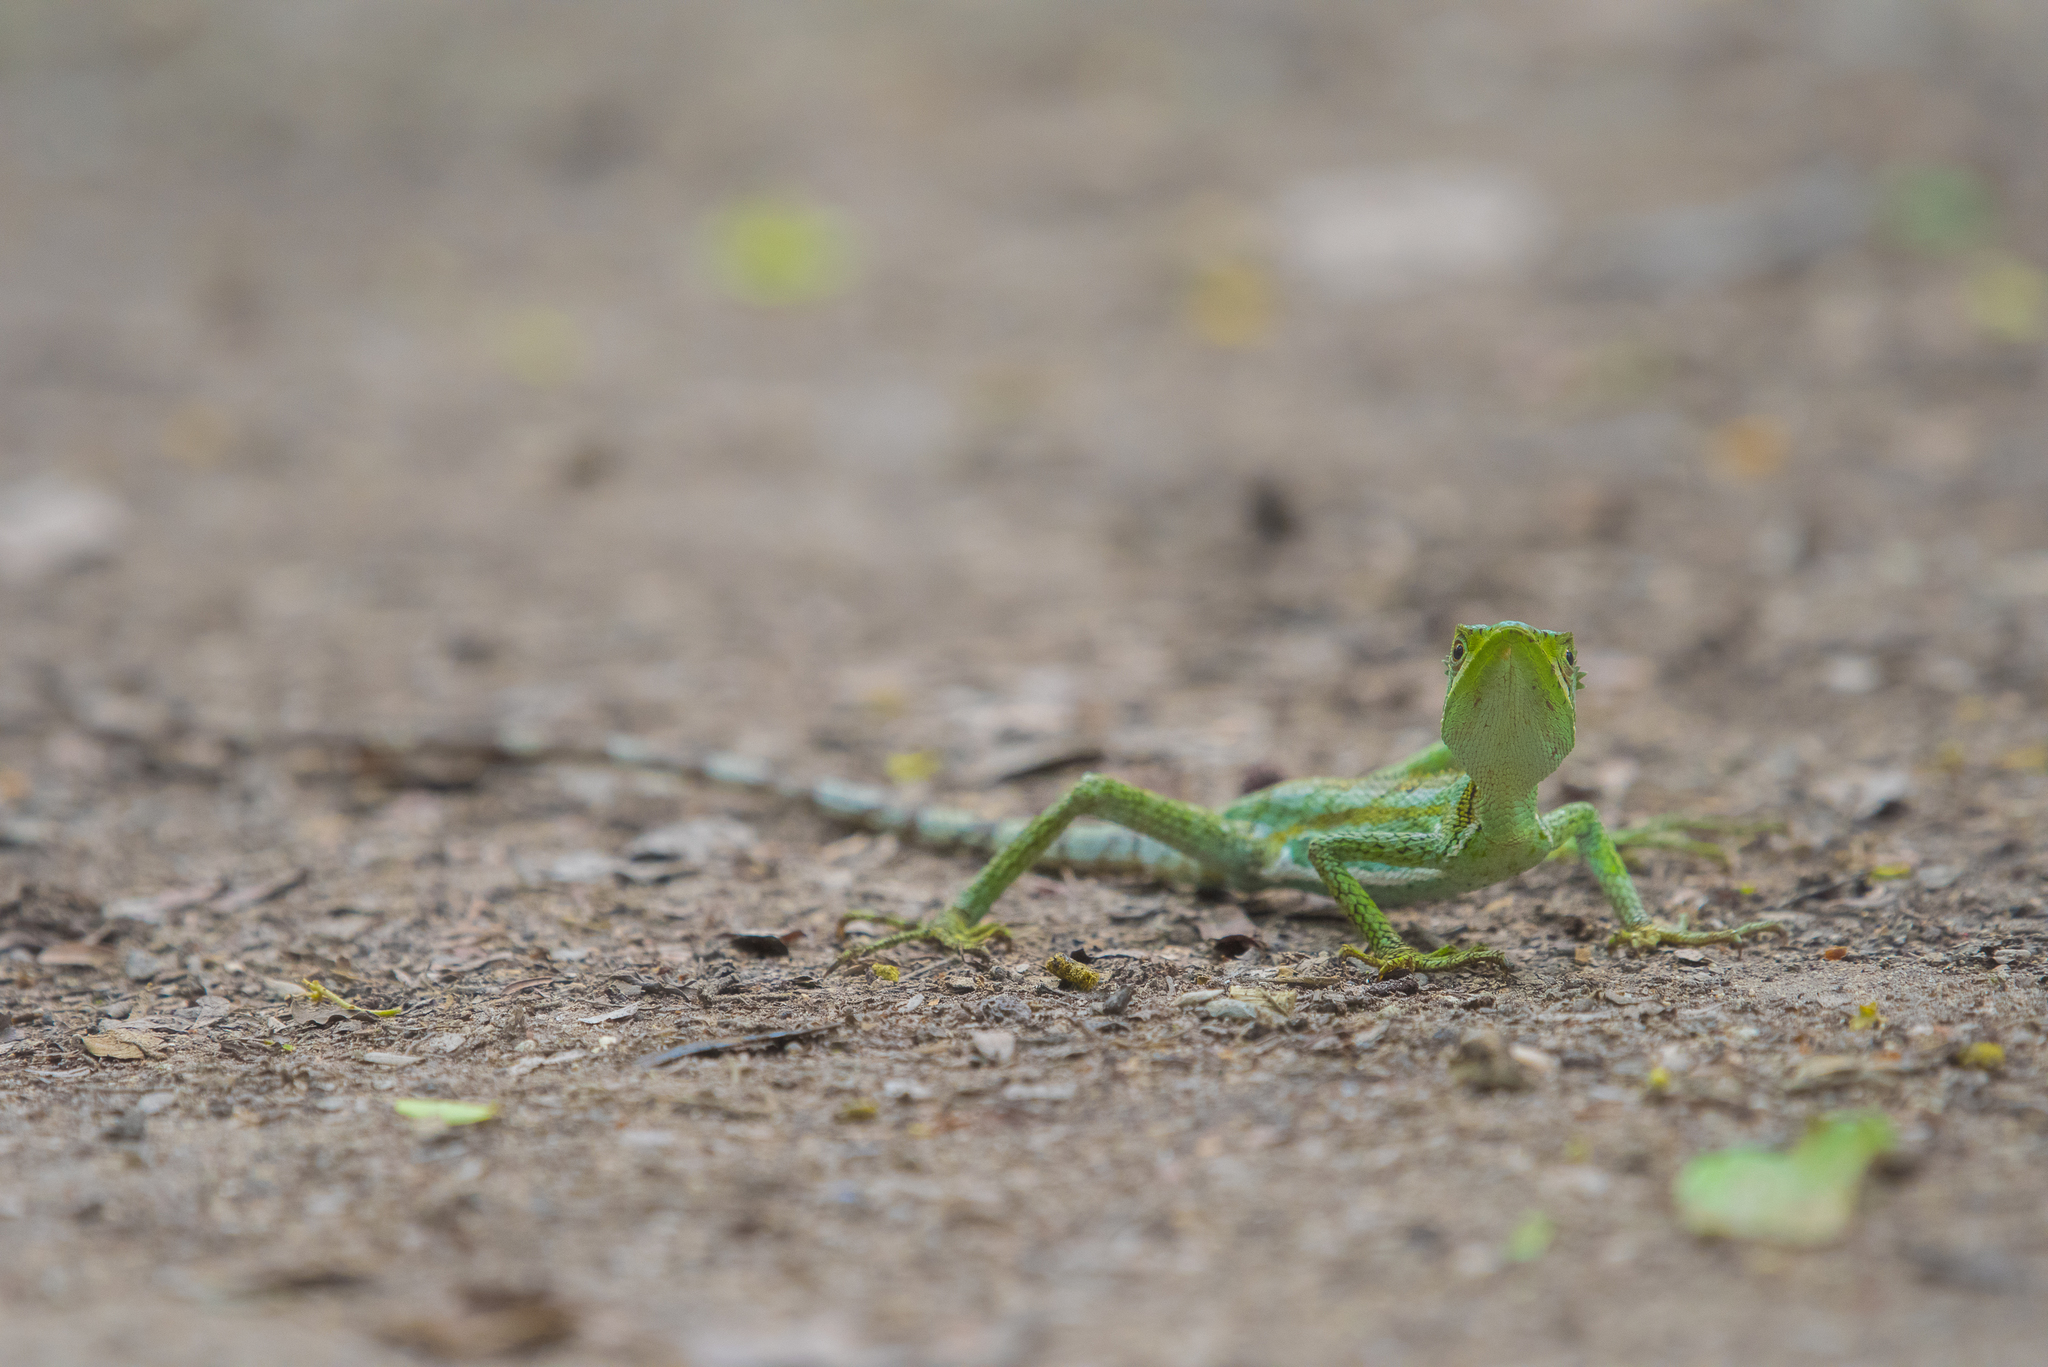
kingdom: Animalia
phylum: Chordata
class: Squamata
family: Corytophanidae
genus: Laemanctus
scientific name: Laemanctus serratus
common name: Serrated casquehead iguana
